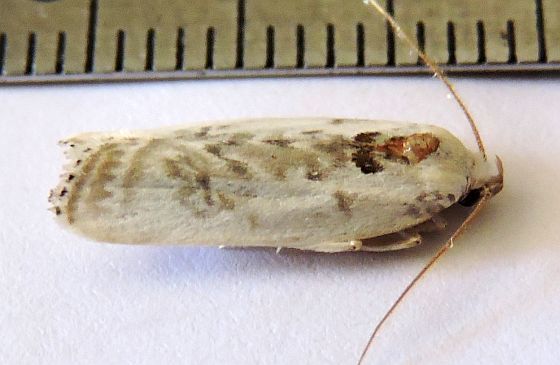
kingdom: Animalia
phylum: Arthropoda
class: Insecta
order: Lepidoptera
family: Depressariidae
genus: Antaeotricha
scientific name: Antaeotricha lindseyi
